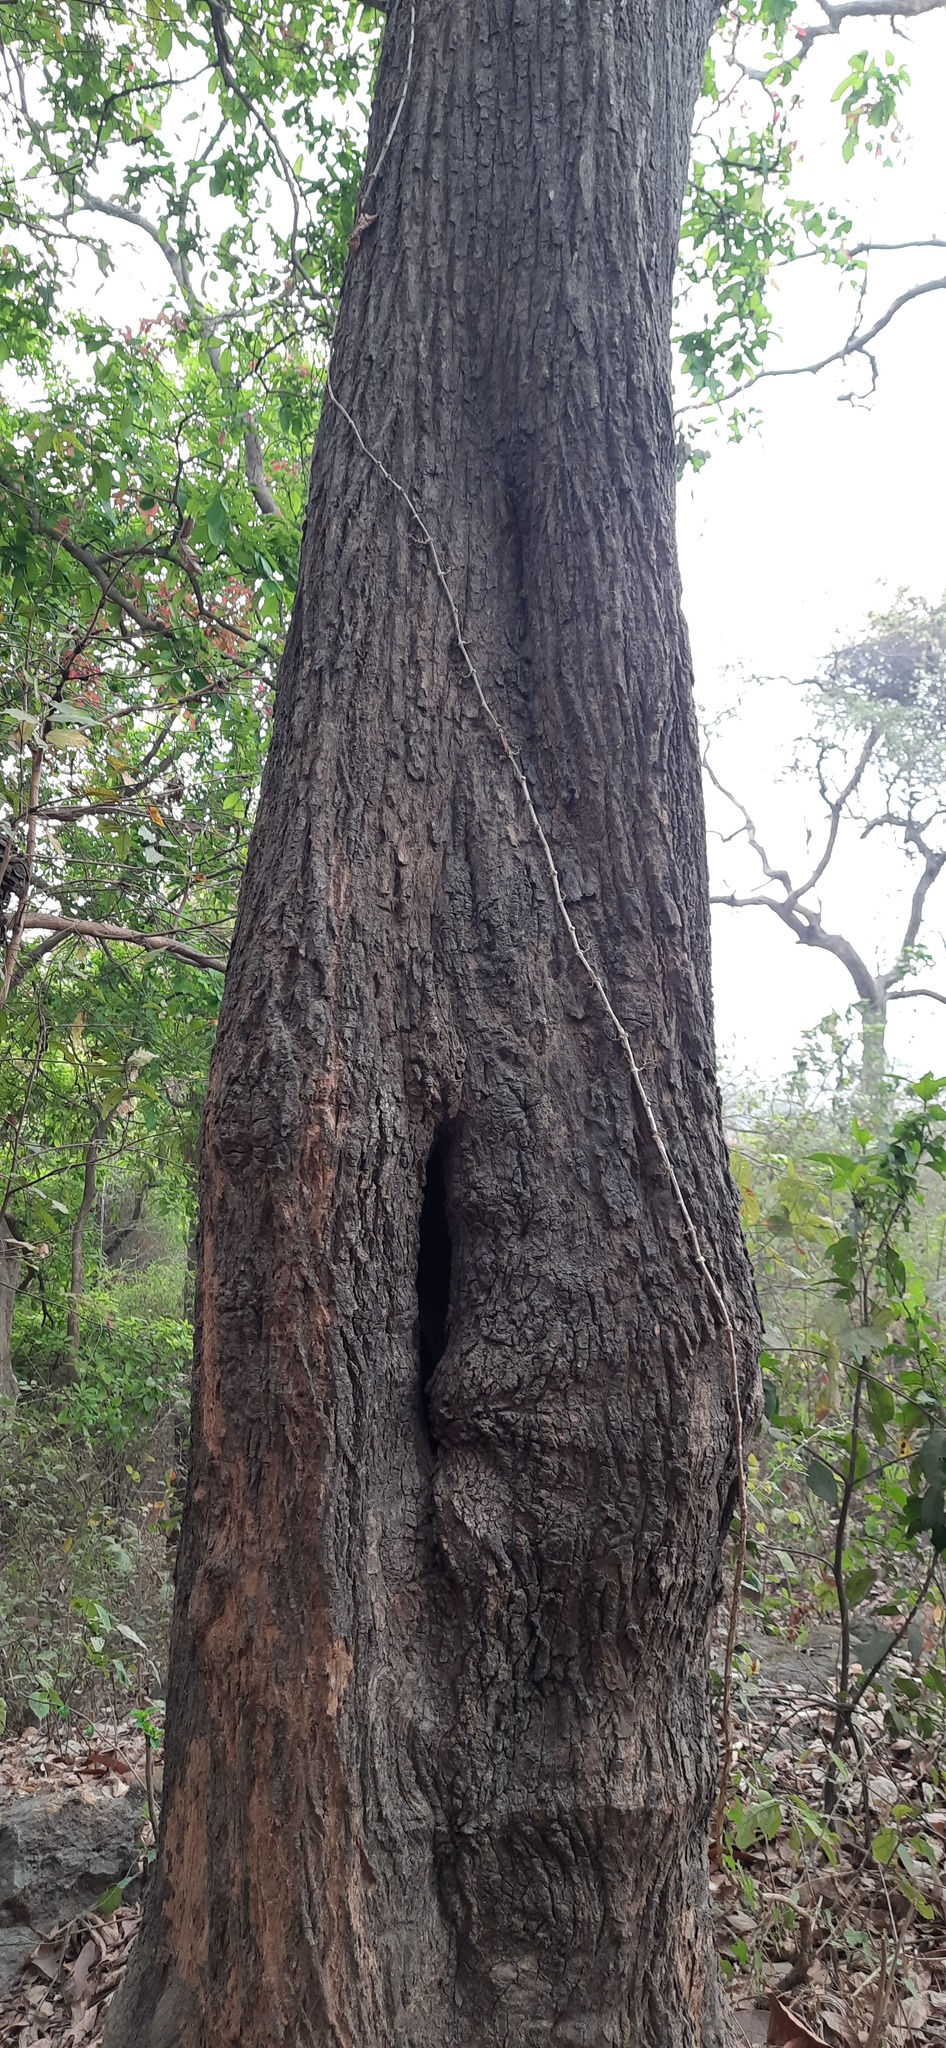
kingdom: Plantae
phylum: Tracheophyta
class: Magnoliopsida
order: Magnoliales
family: Annonaceae
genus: Miliusa
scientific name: Miliusa tomentosa
